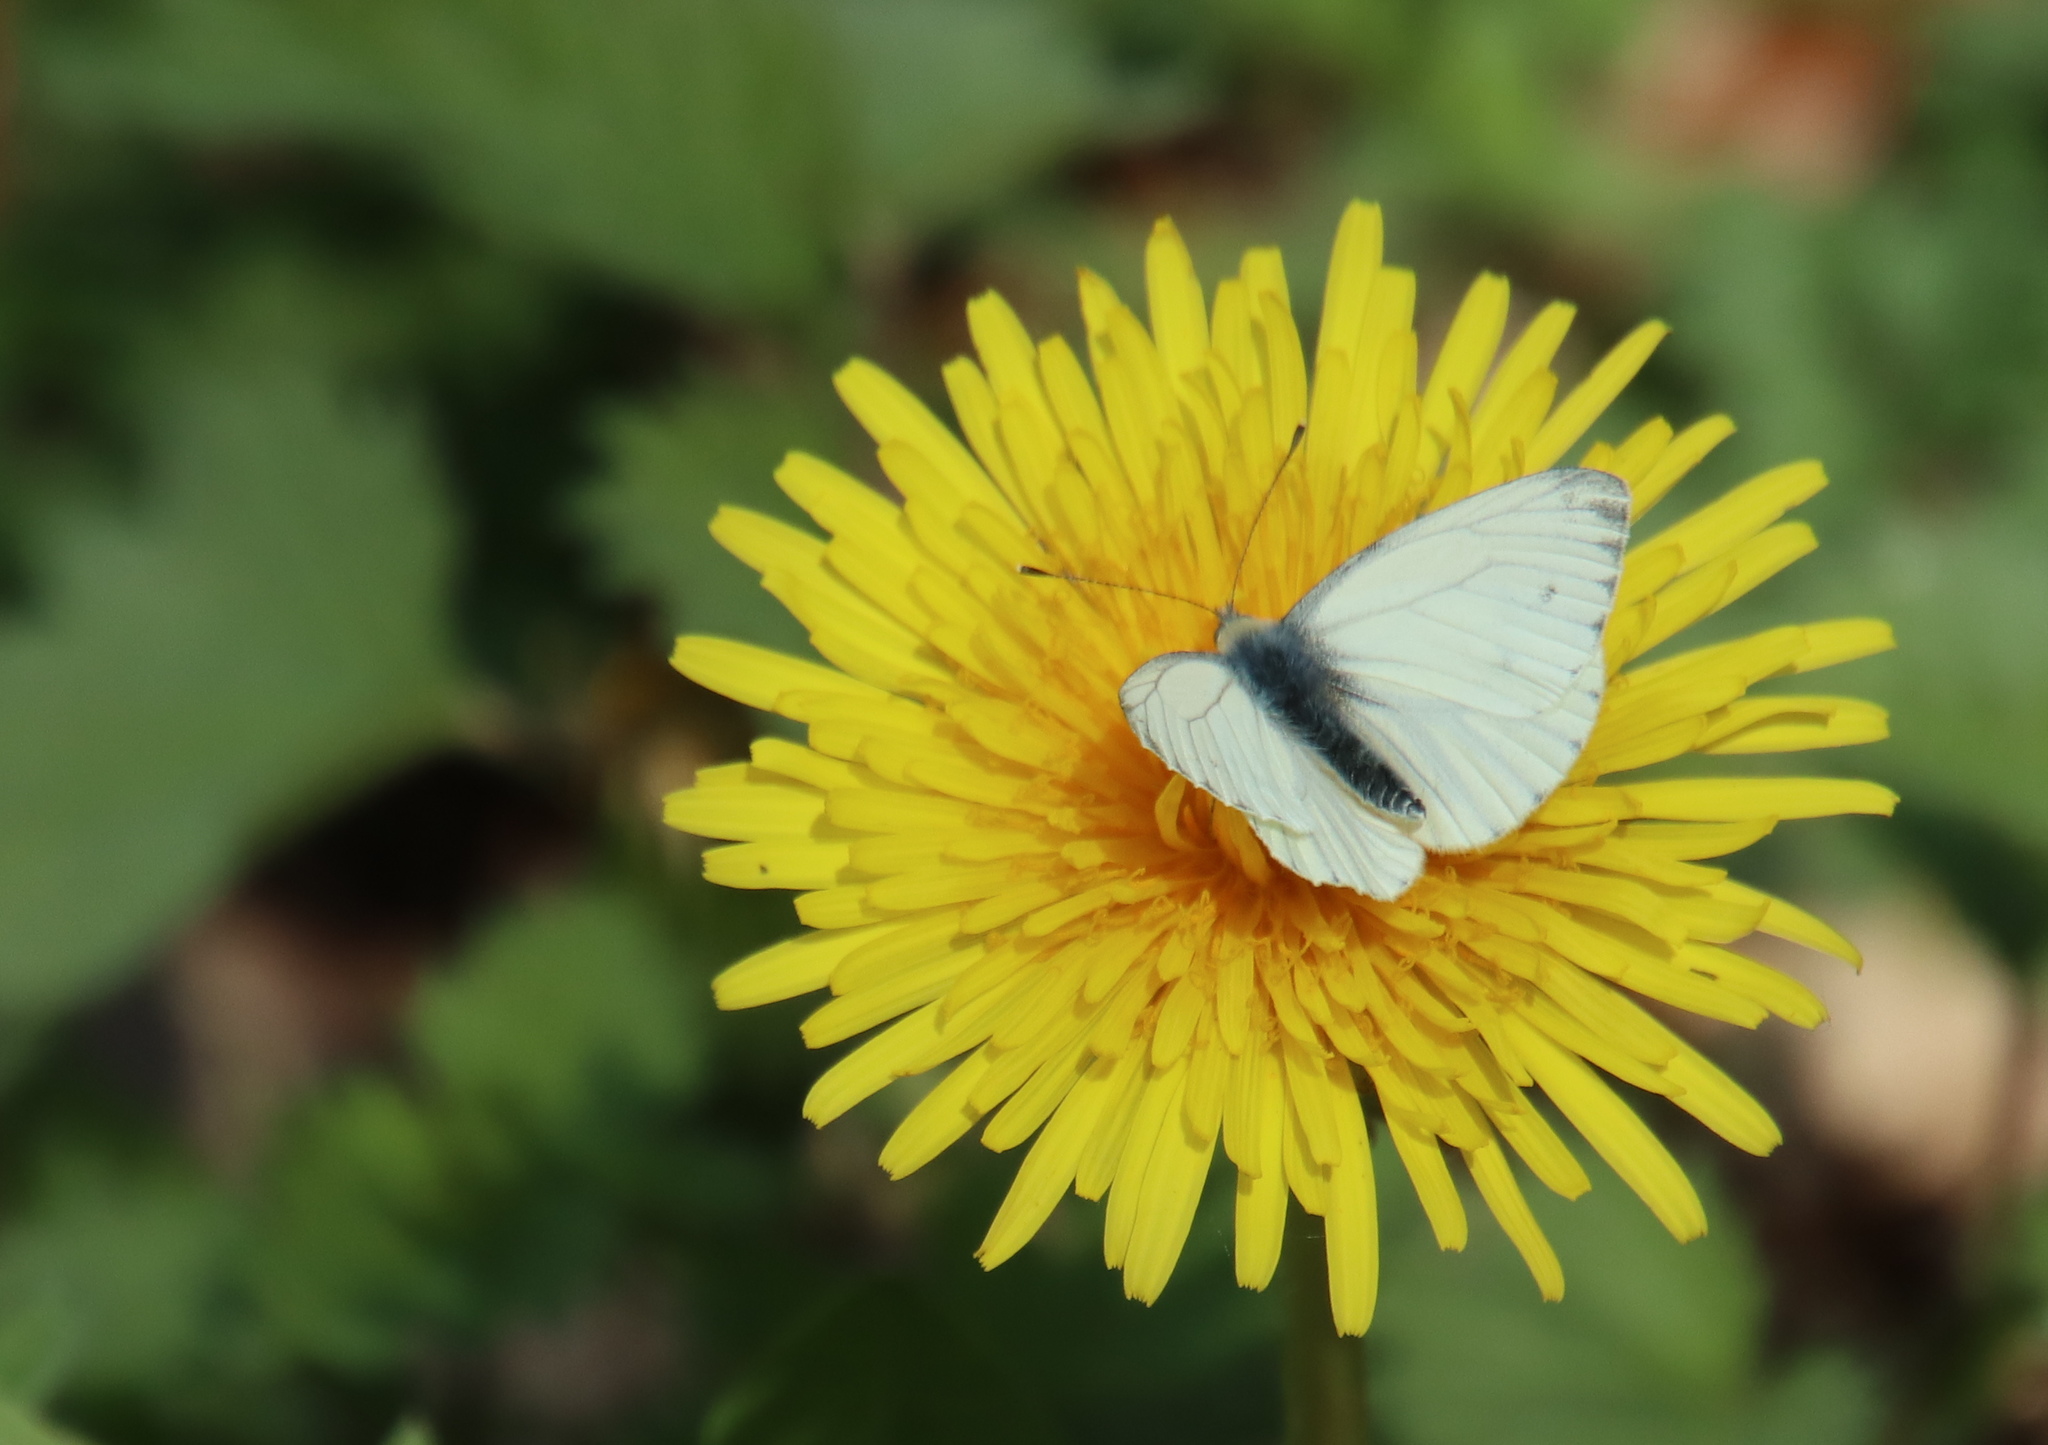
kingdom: Animalia
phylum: Arthropoda
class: Insecta
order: Lepidoptera
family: Pieridae
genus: Pieris
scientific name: Pieris napi
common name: Green-veined white
